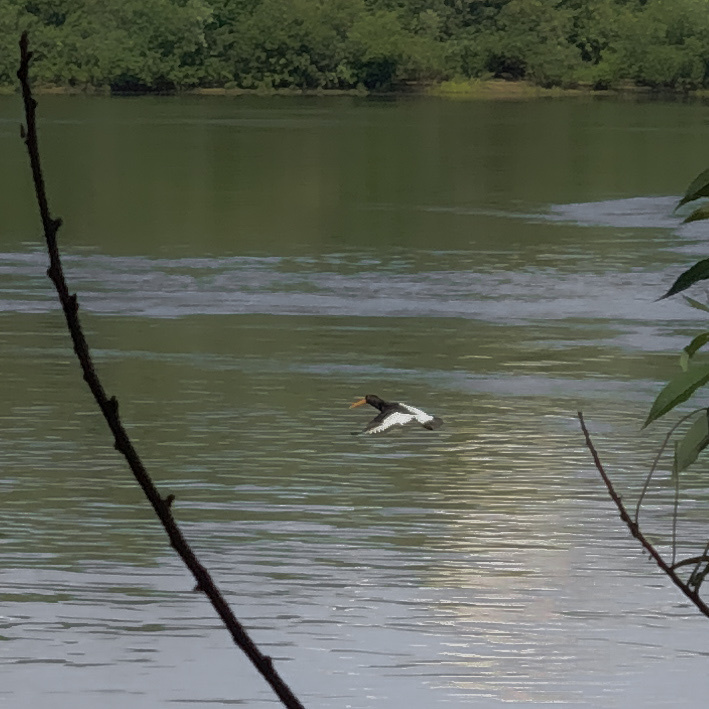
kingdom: Animalia
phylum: Chordata
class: Aves
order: Charadriiformes
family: Haematopodidae
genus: Haematopus
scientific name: Haematopus ostralegus
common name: Eurasian oystercatcher
